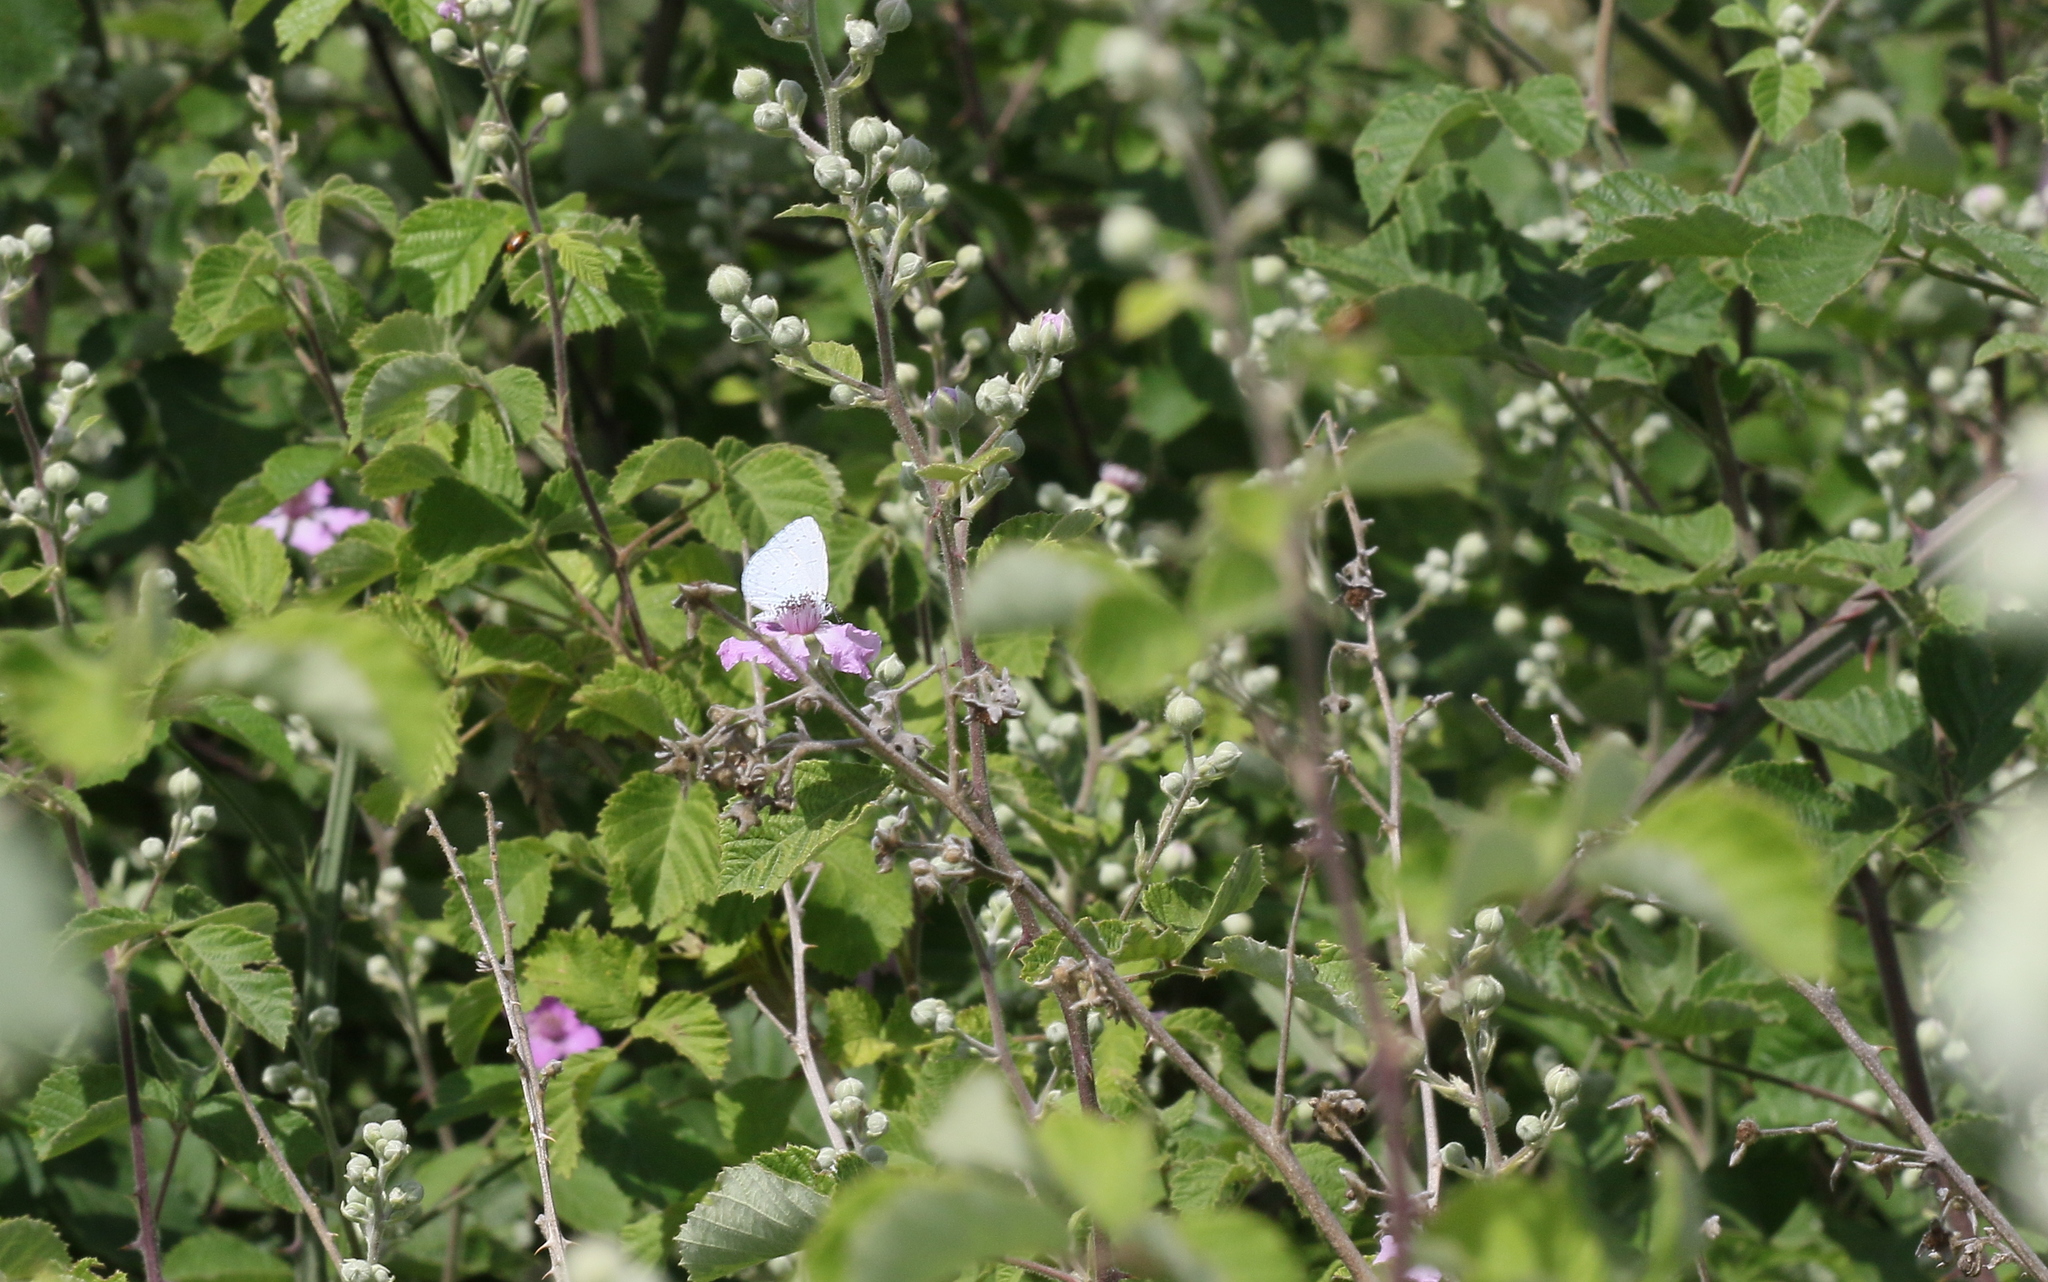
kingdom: Animalia
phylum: Arthropoda
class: Insecta
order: Lepidoptera
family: Lycaenidae
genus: Celastrina
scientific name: Celastrina argiolus
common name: Holly blue
